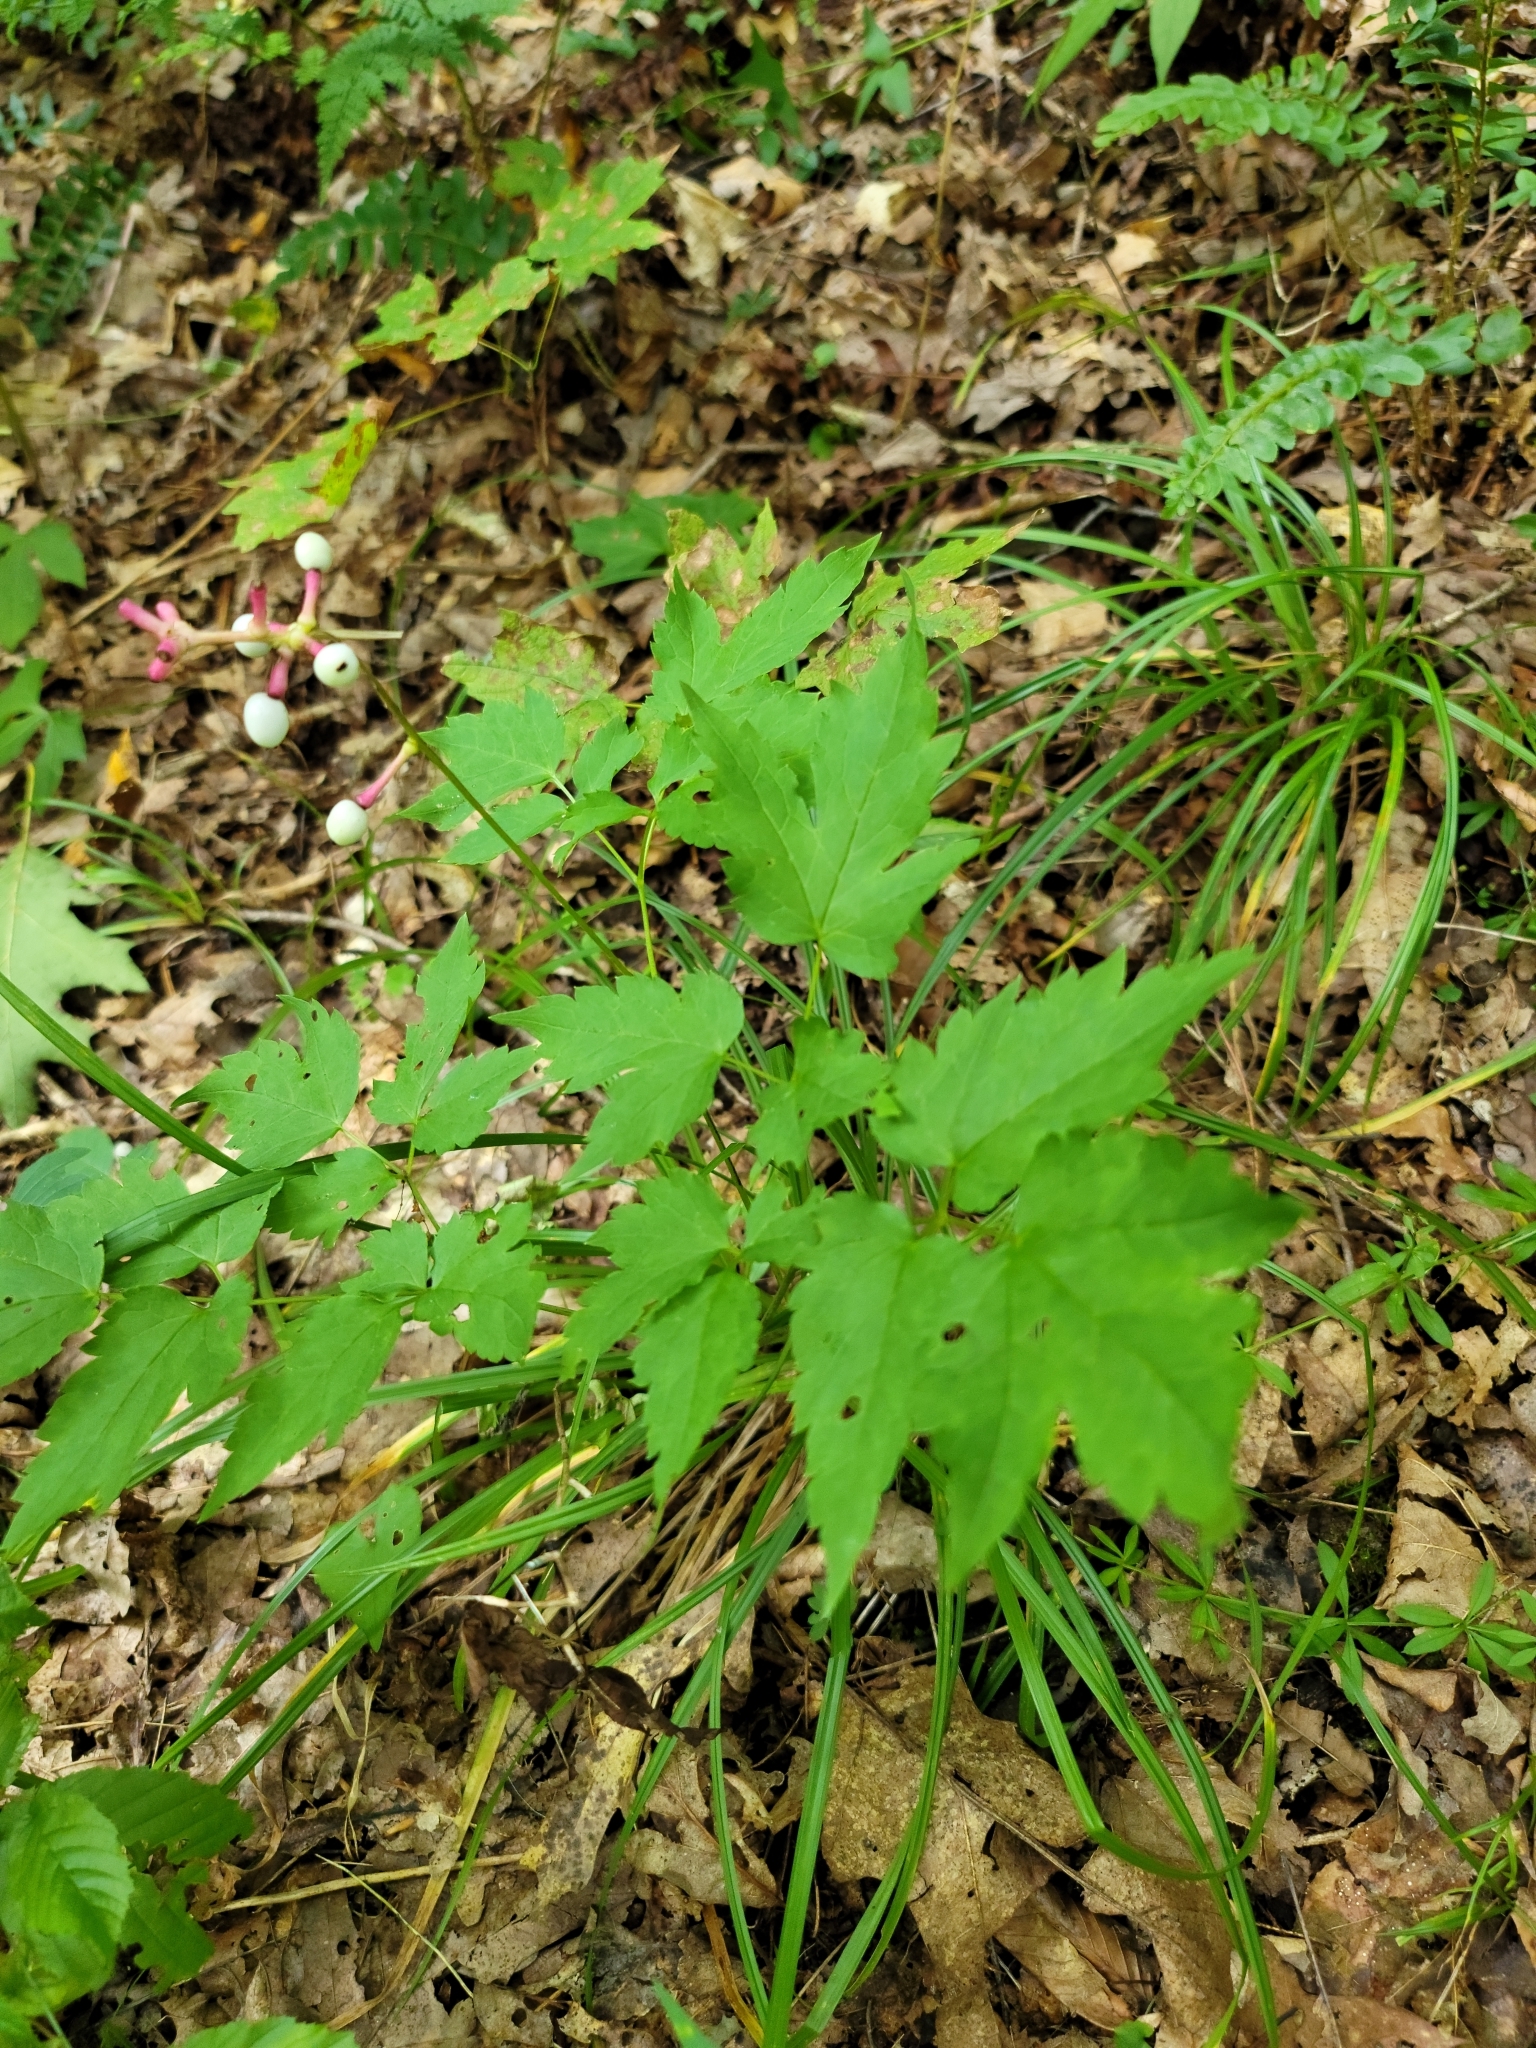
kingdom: Plantae
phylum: Tracheophyta
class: Magnoliopsida
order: Ranunculales
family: Ranunculaceae
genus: Actaea
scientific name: Actaea pachypoda
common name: Doll's-eyes
